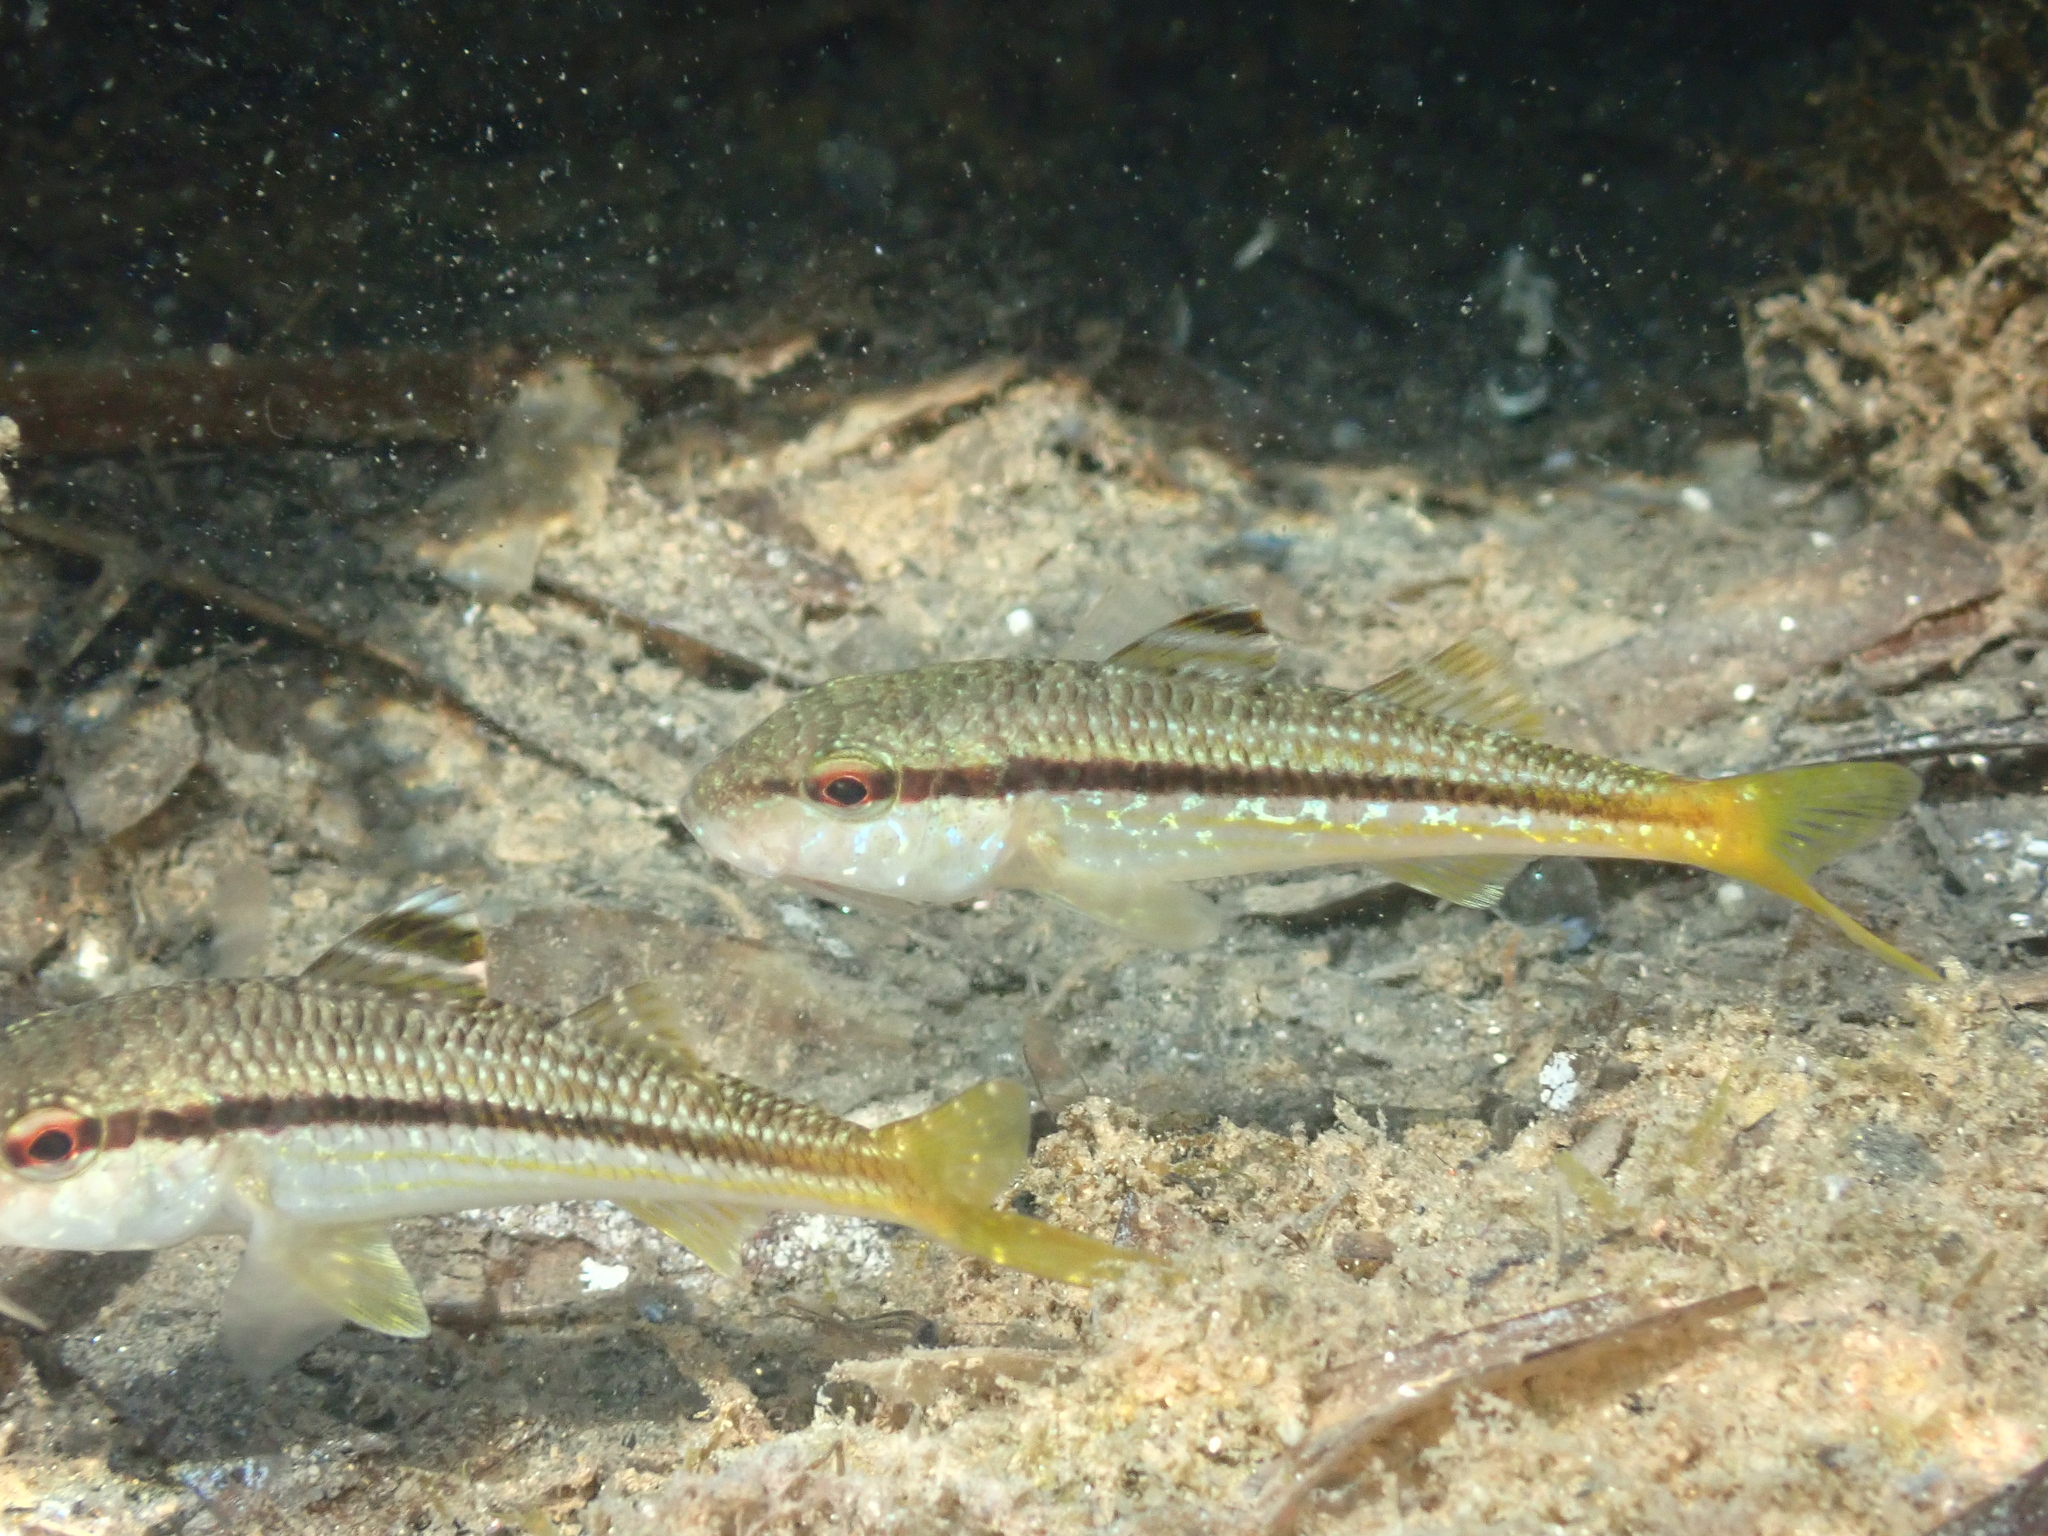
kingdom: Animalia
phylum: Chordata
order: Perciformes
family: Mullidae
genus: Mullus
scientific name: Mullus surmuletus
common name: Red mullet
